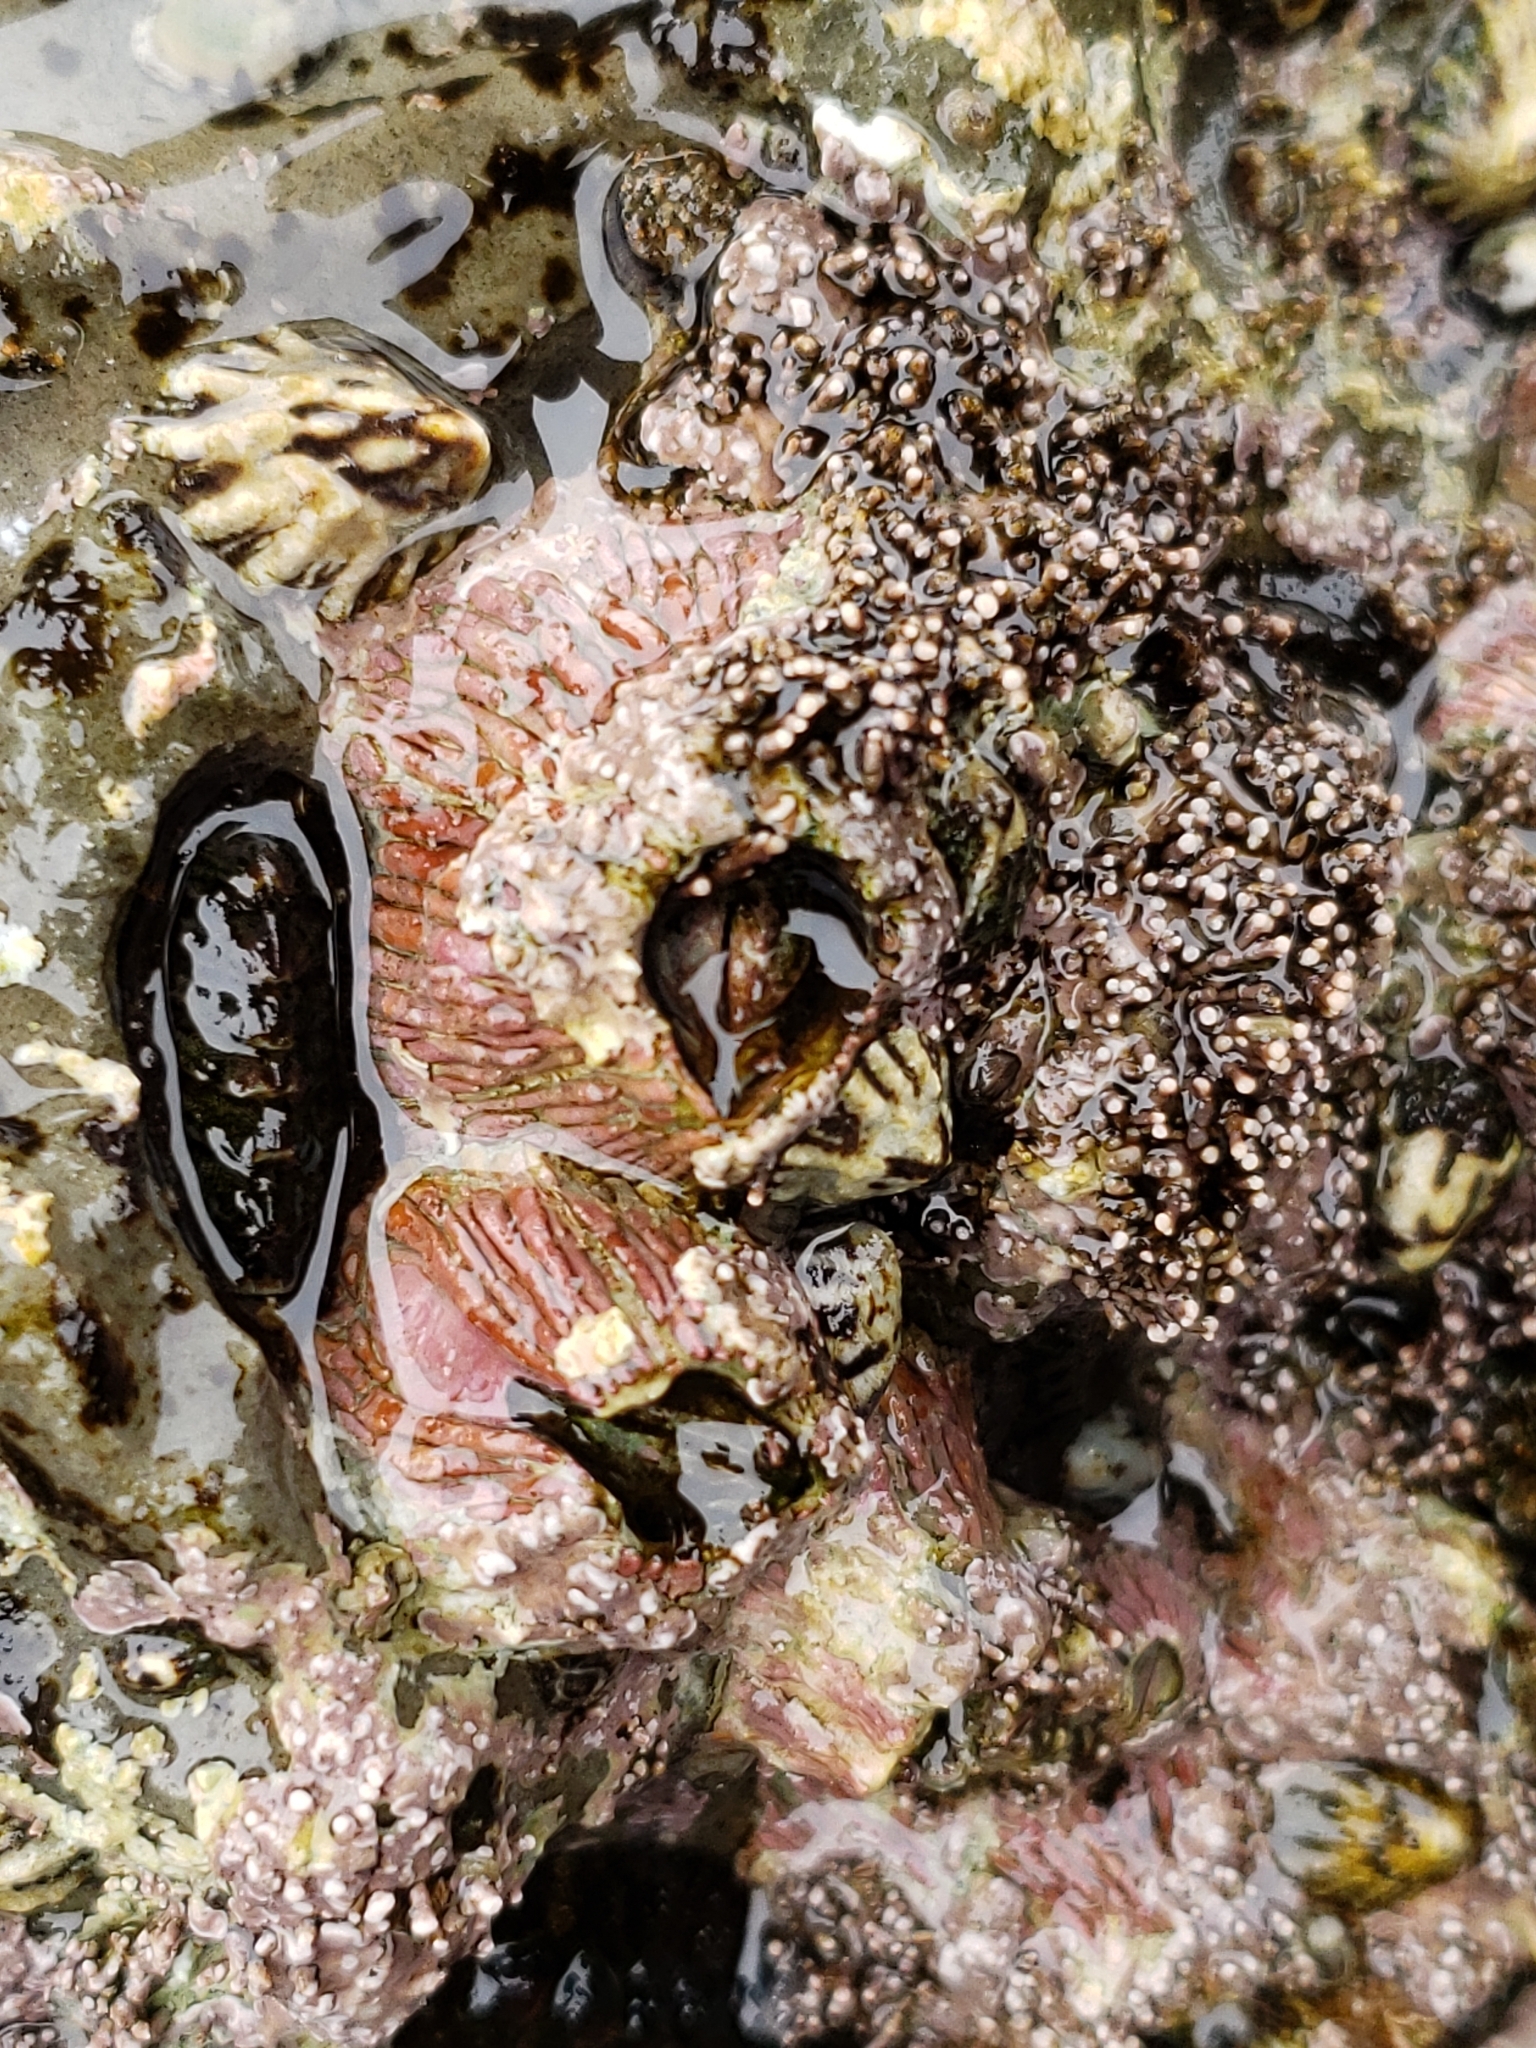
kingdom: Animalia
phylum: Arthropoda
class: Maxillopoda
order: Sessilia
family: Tetraclitidae
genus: Tetraclita
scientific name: Tetraclita rubescens
